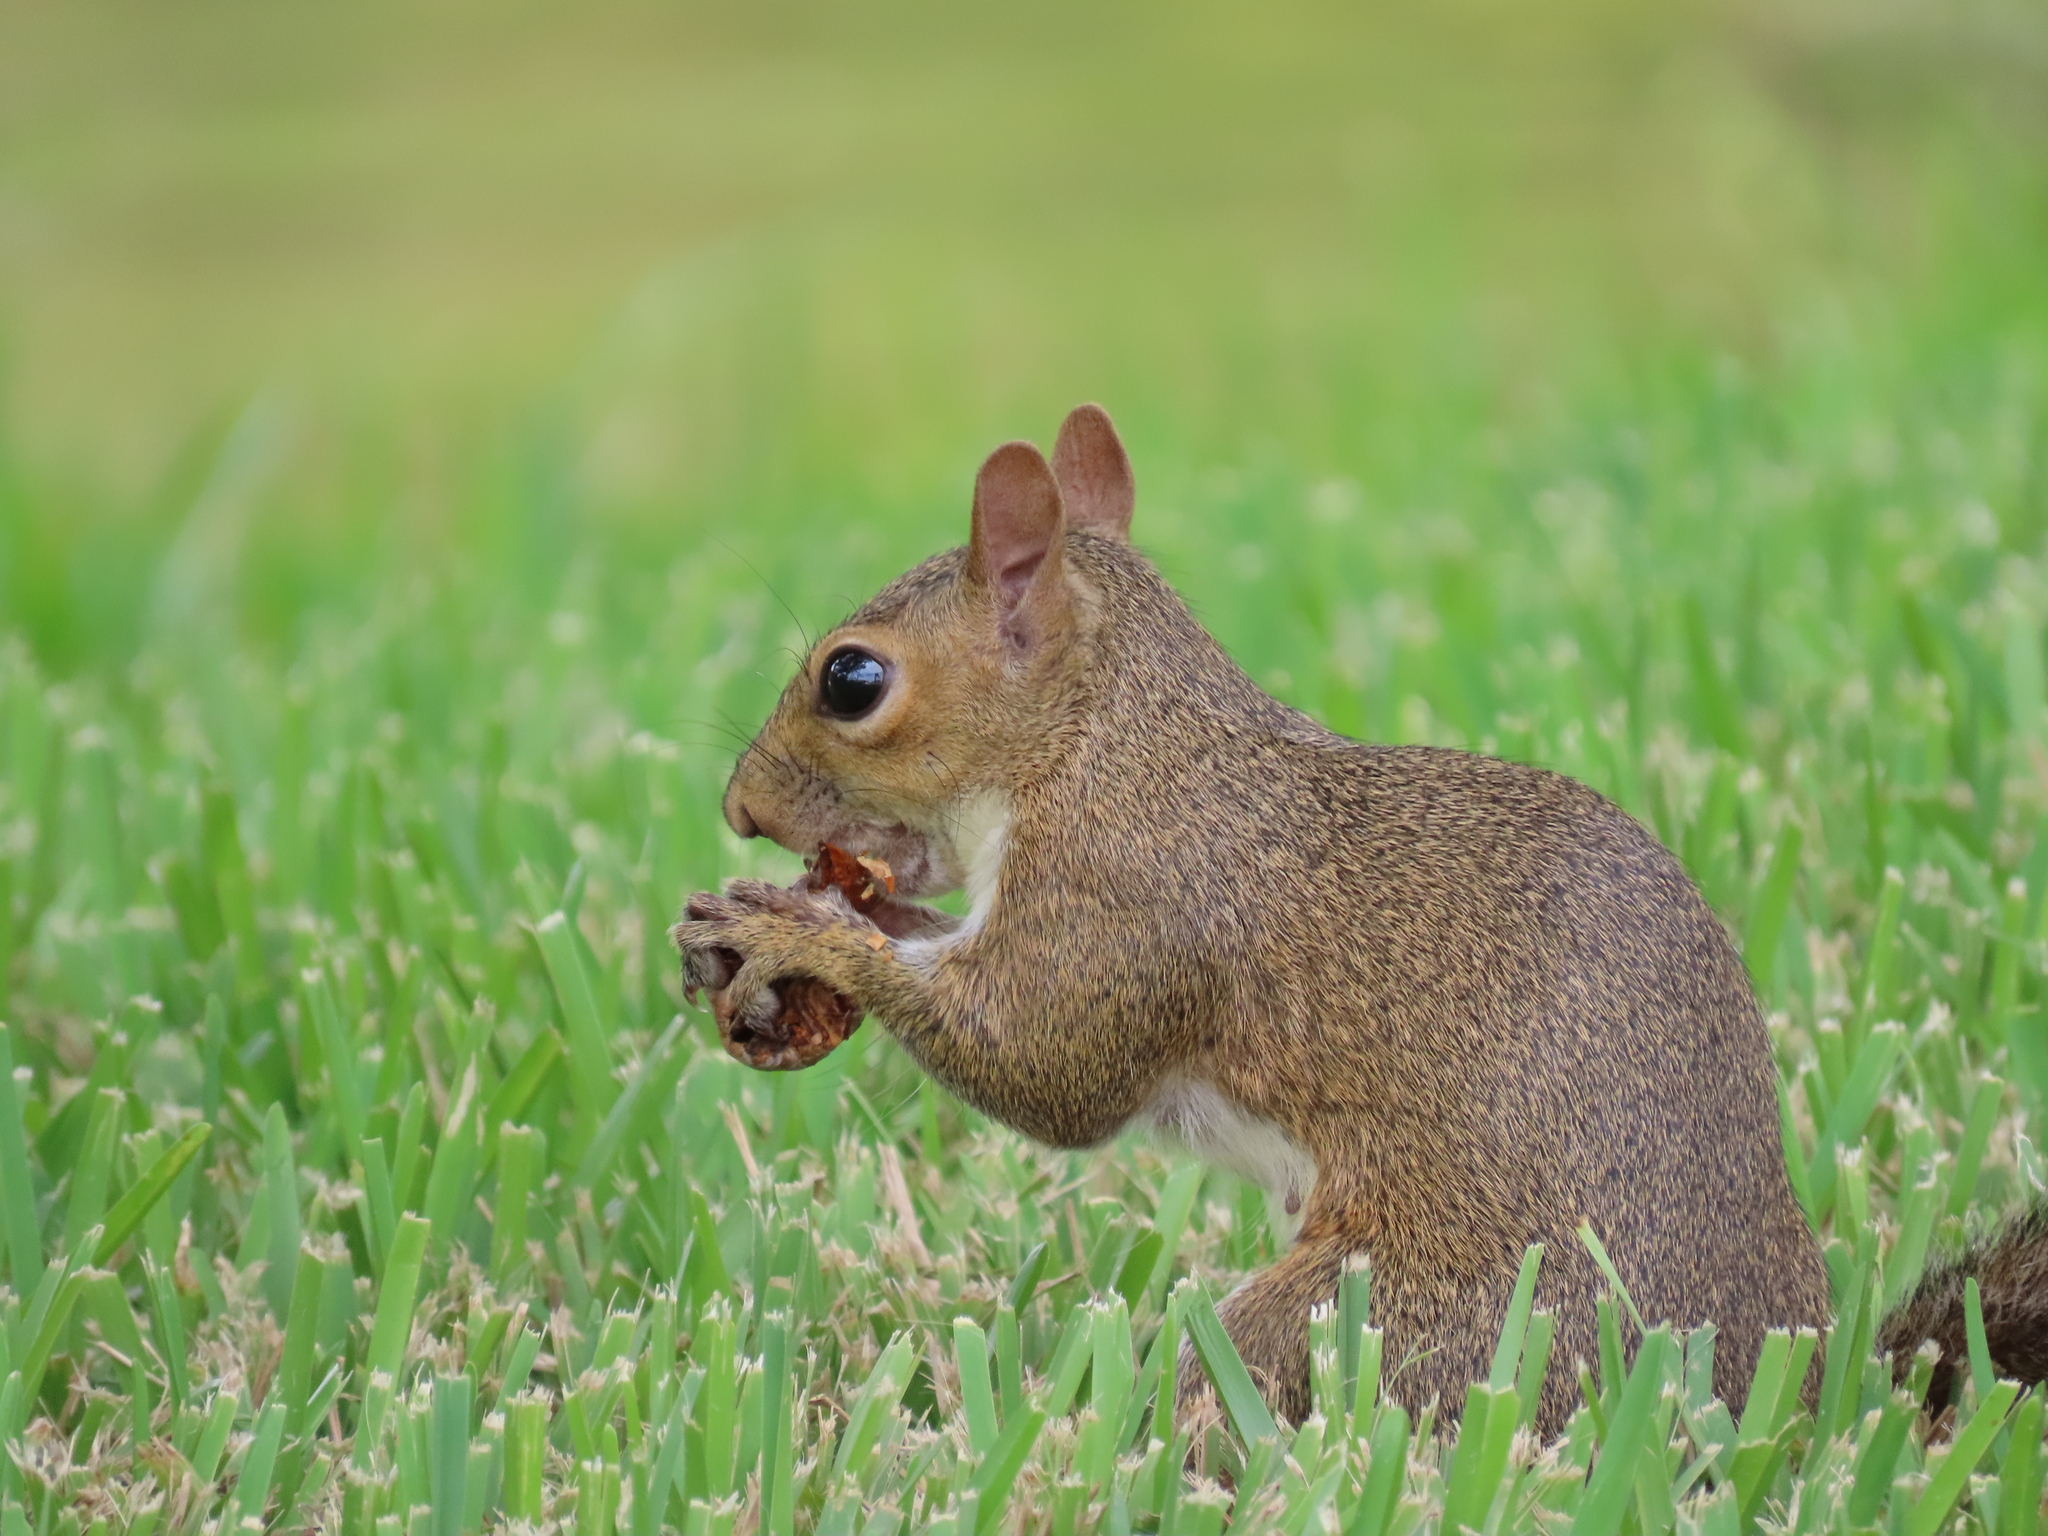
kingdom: Animalia
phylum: Chordata
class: Mammalia
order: Rodentia
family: Sciuridae
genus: Sciurus
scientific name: Sciurus carolinensis
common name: Eastern gray squirrel
